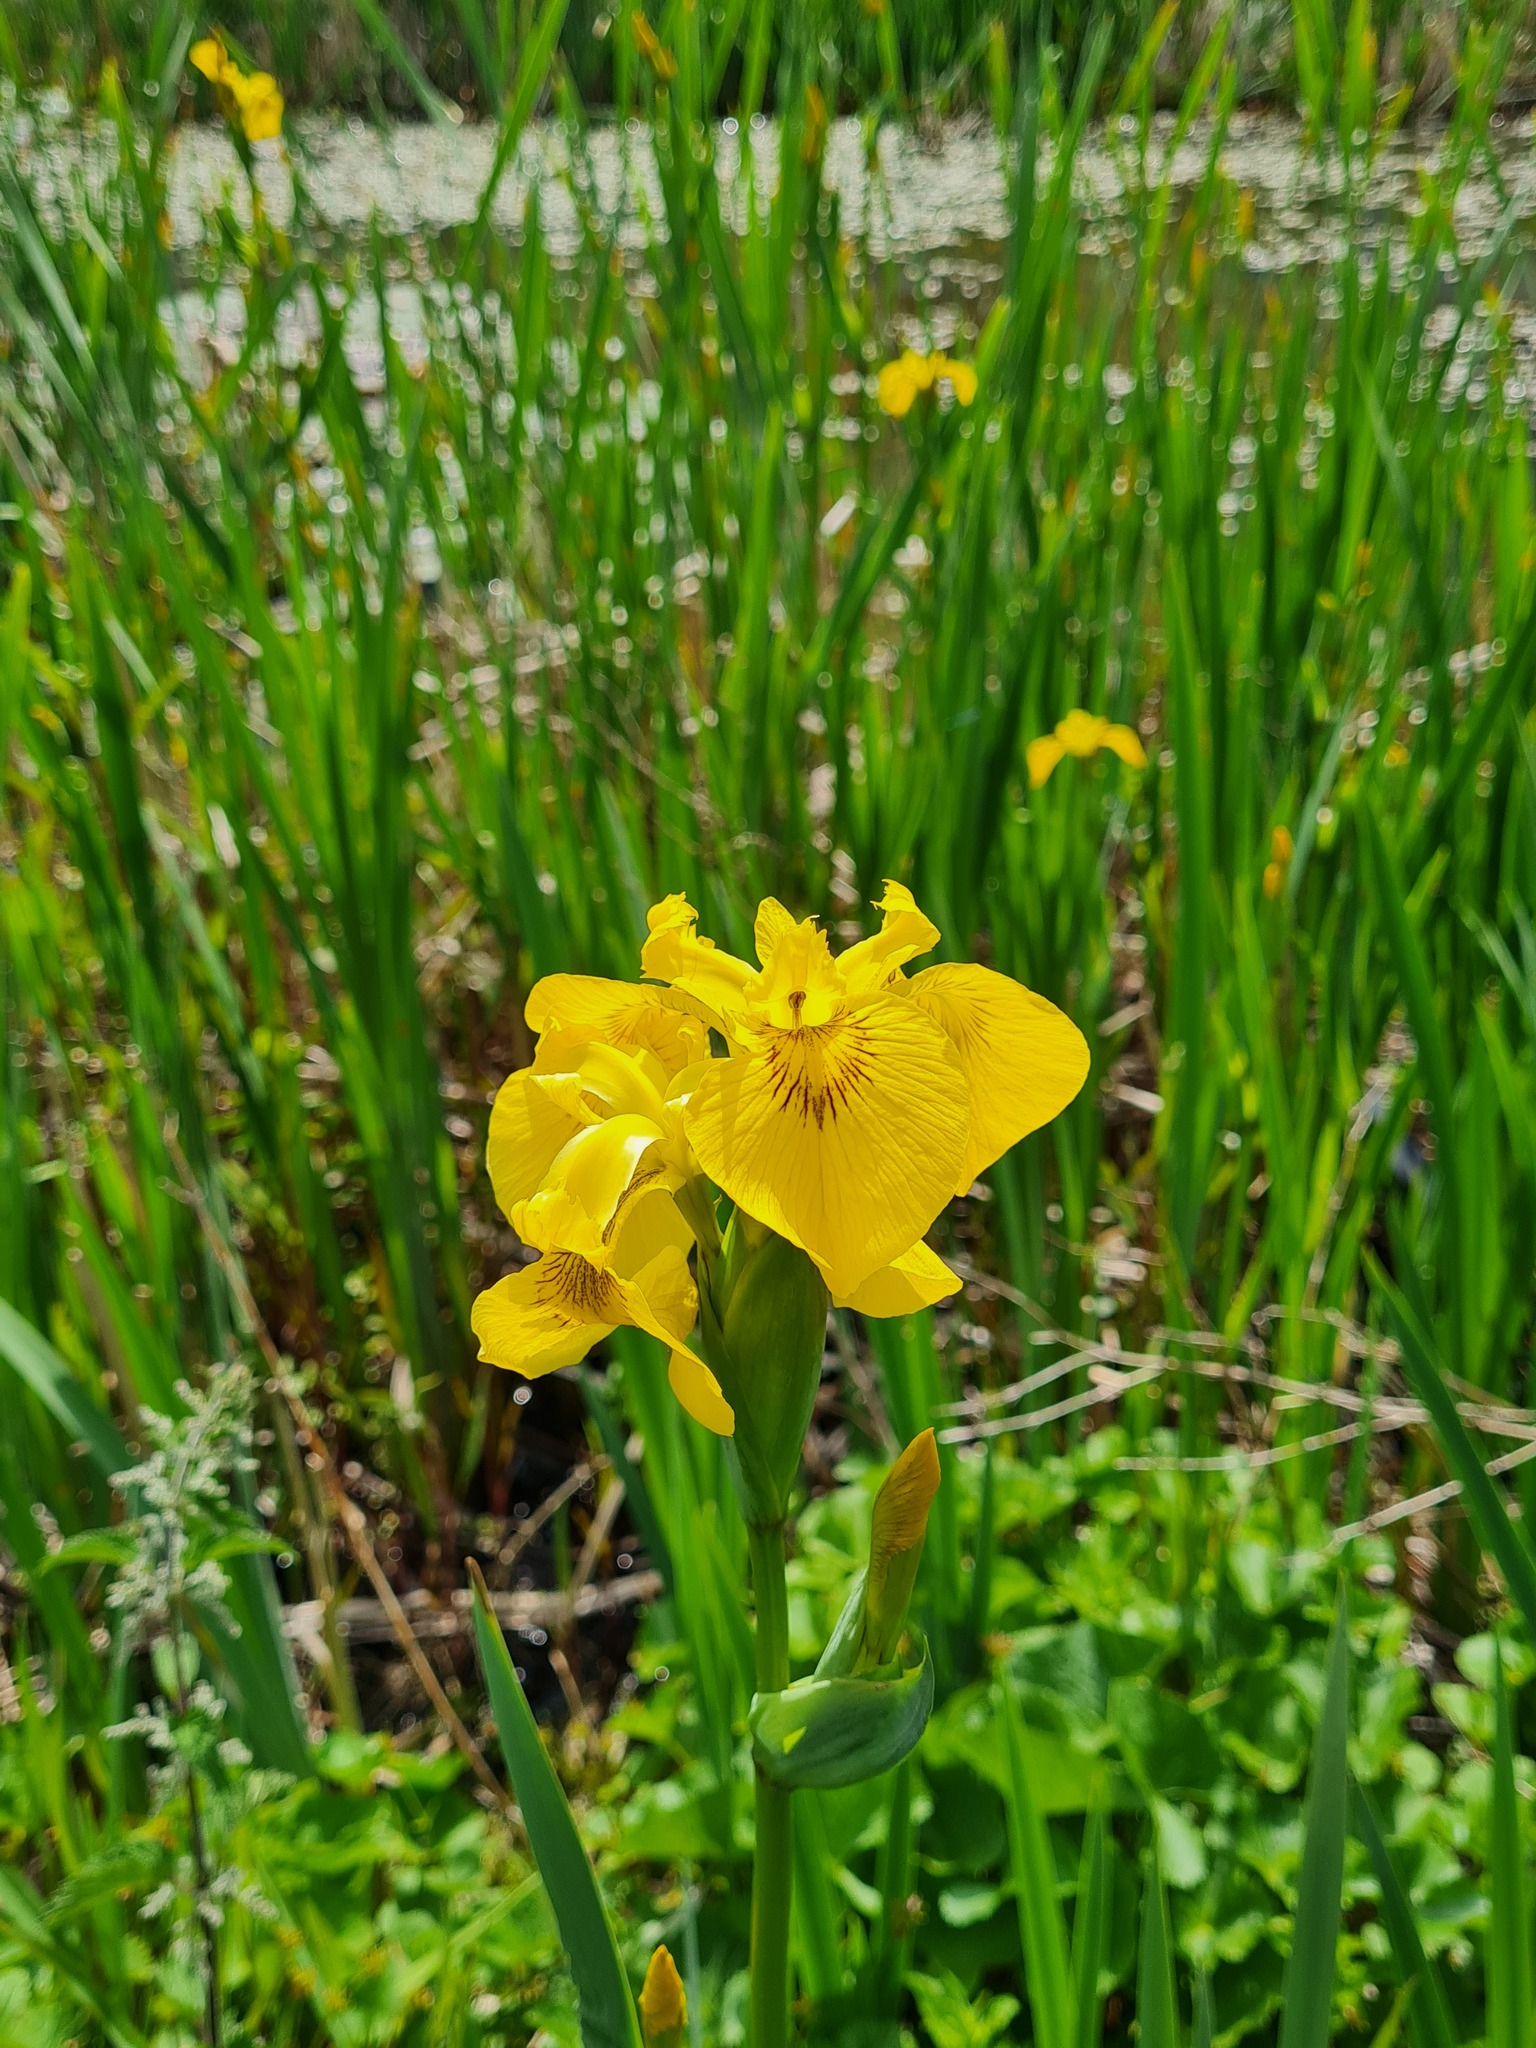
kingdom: Plantae
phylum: Tracheophyta
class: Liliopsida
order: Asparagales
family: Iridaceae
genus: Iris
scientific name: Iris pseudacorus
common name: Yellow flag
